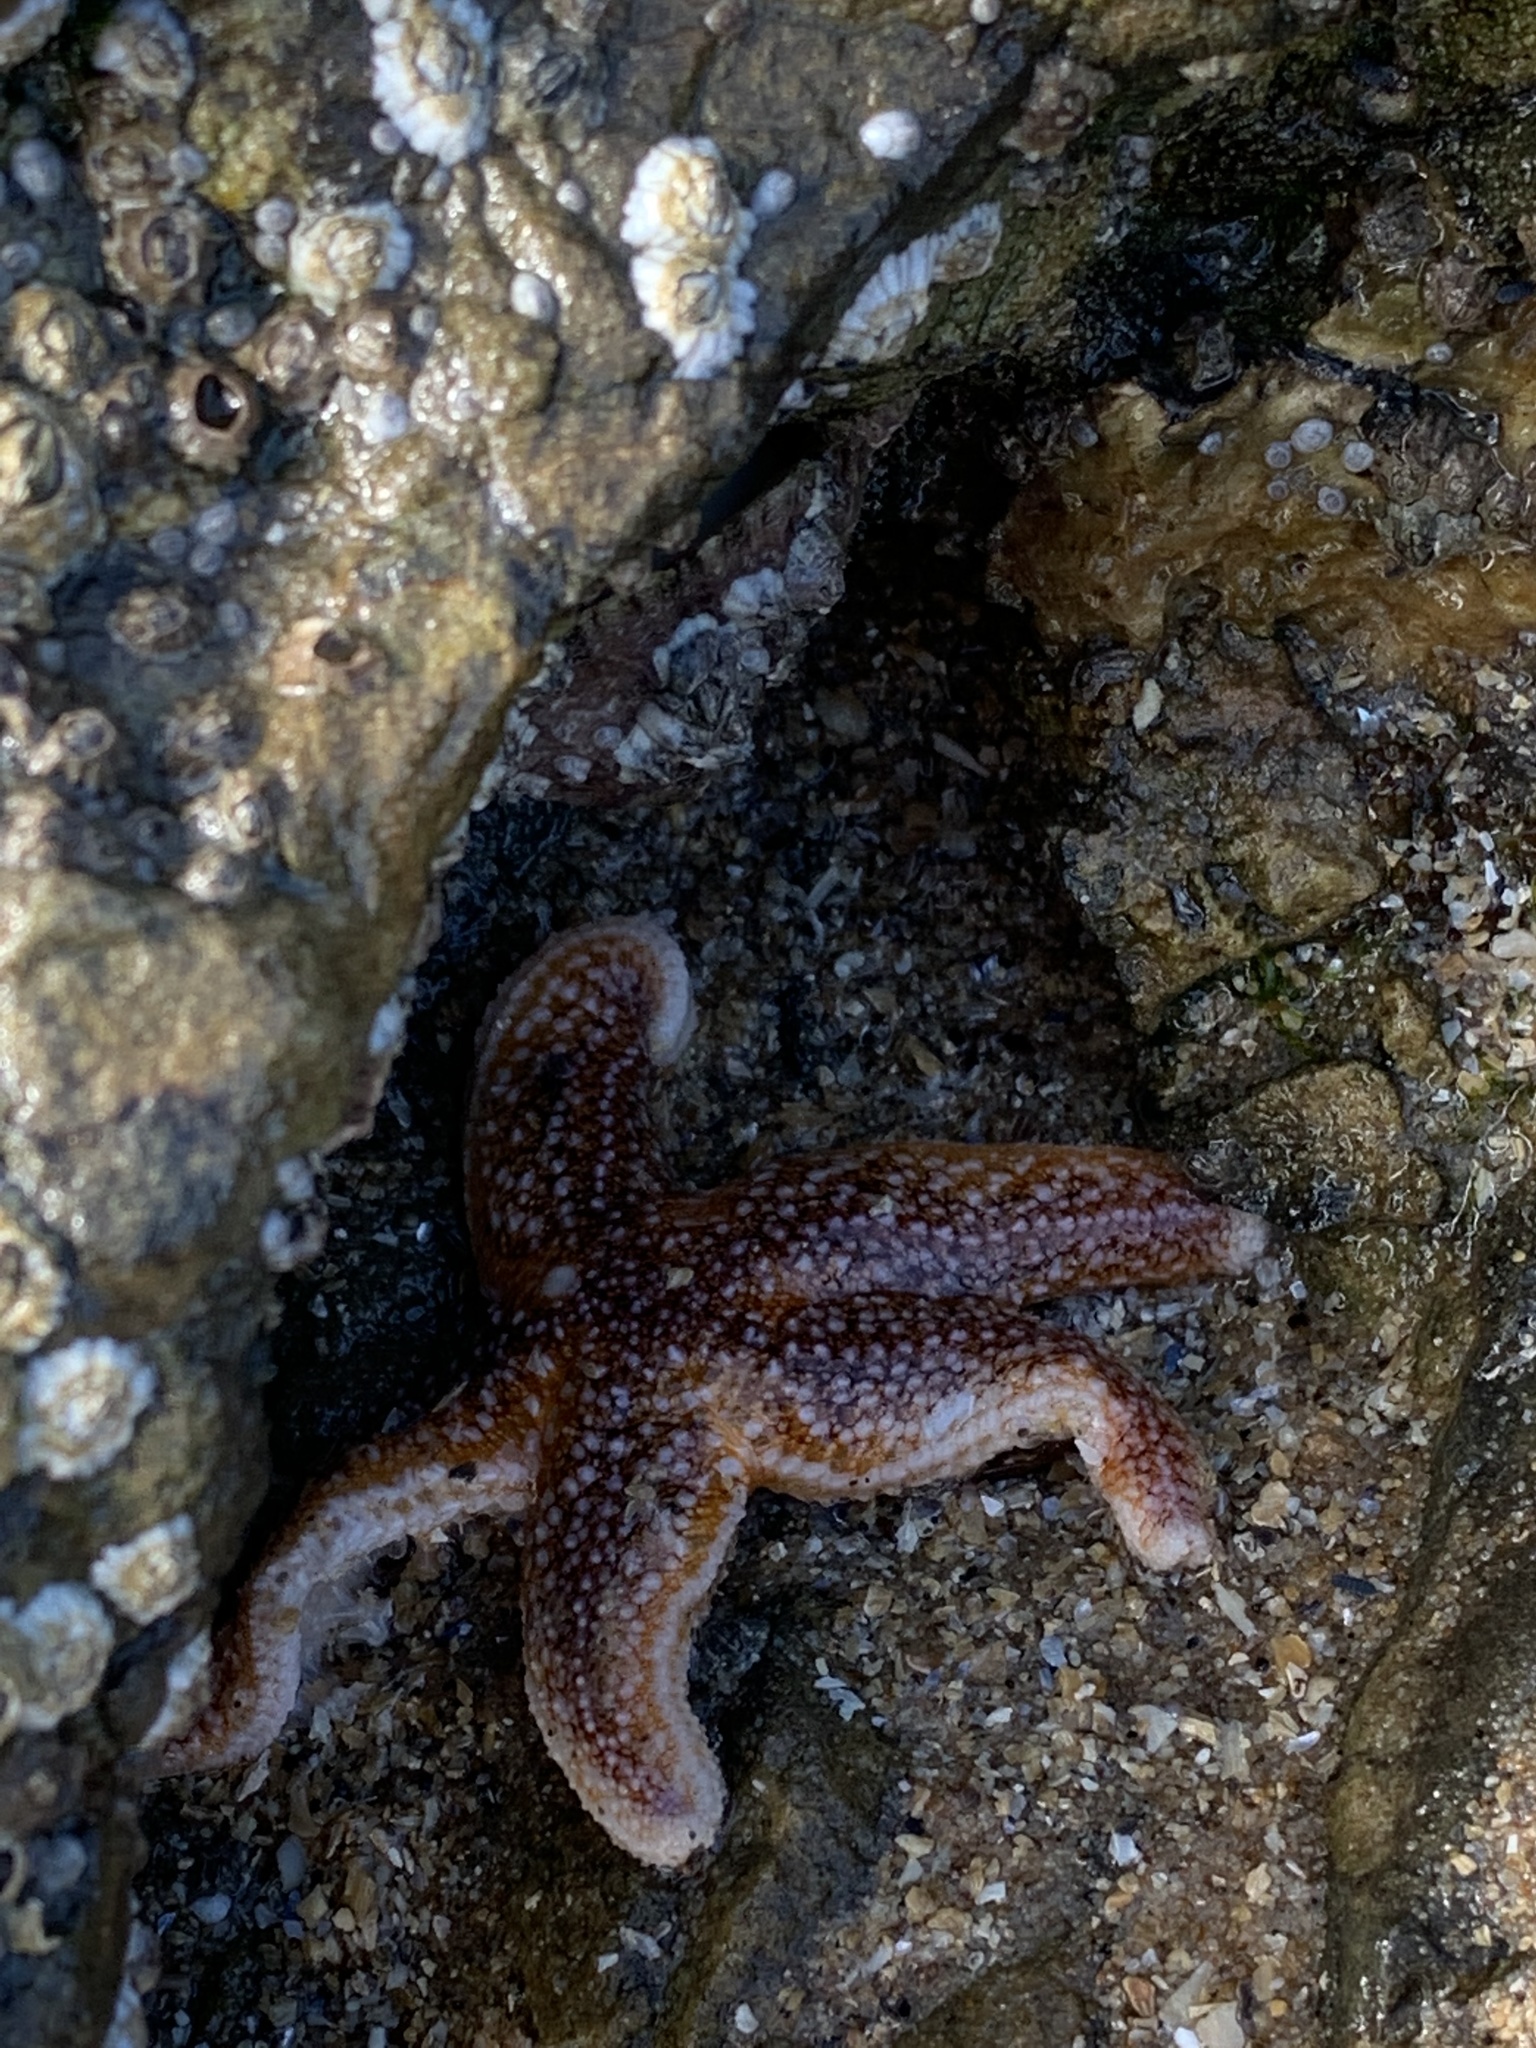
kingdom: Animalia
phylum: Echinodermata
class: Asteroidea
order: Forcipulatida
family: Asteriidae
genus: Asterias
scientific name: Asterias rubens
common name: Common starfish
